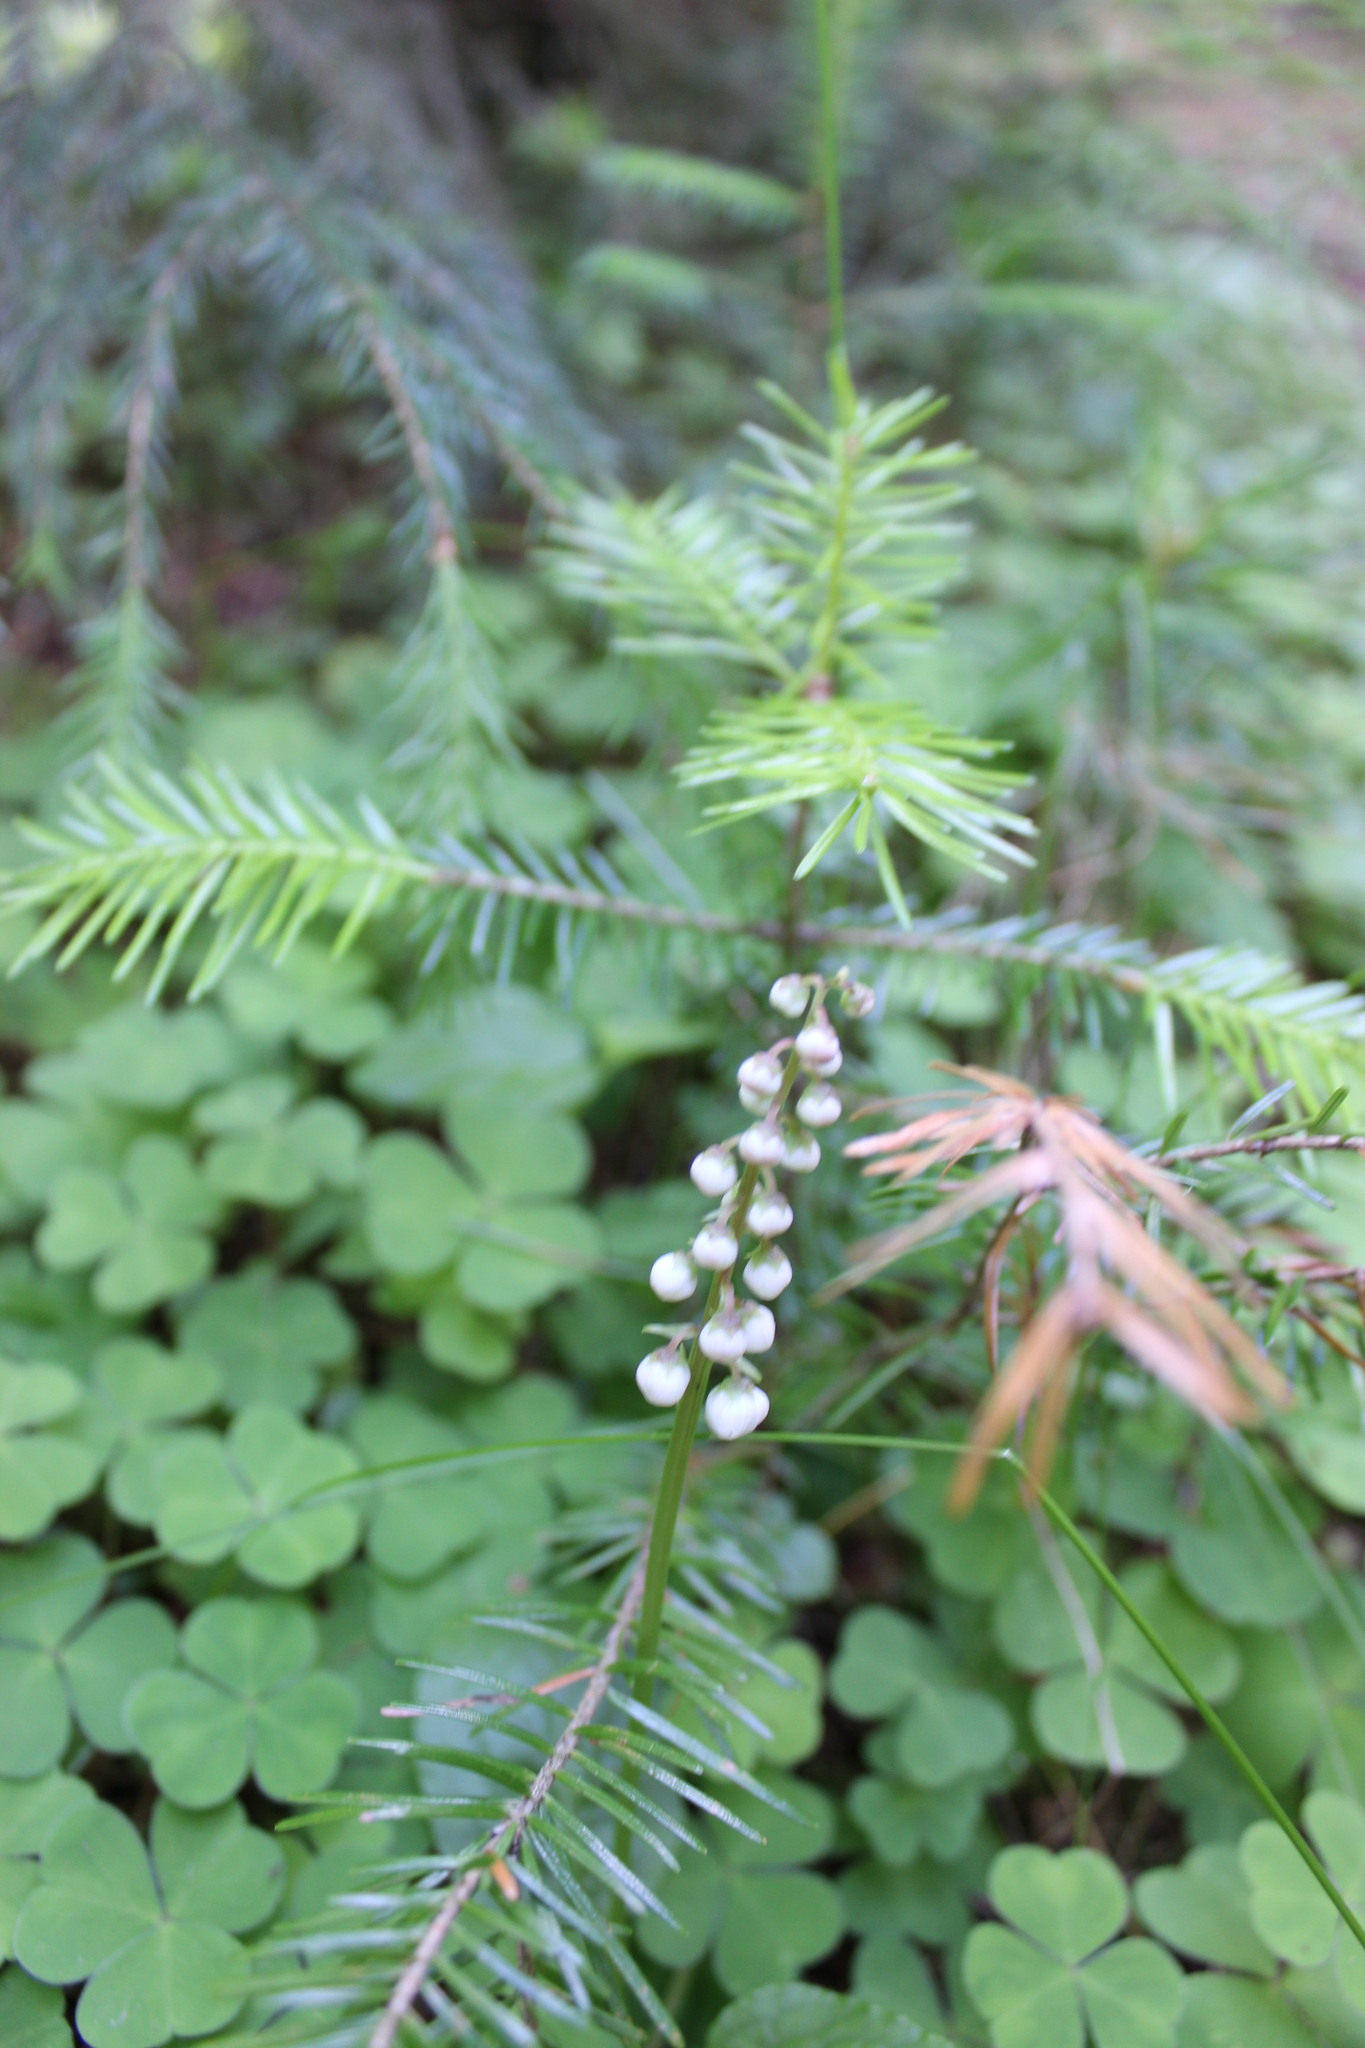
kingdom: Plantae
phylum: Tracheophyta
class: Magnoliopsida
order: Ericales
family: Ericaceae
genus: Pyrola
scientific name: Pyrola minor
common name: Common wintergreen
